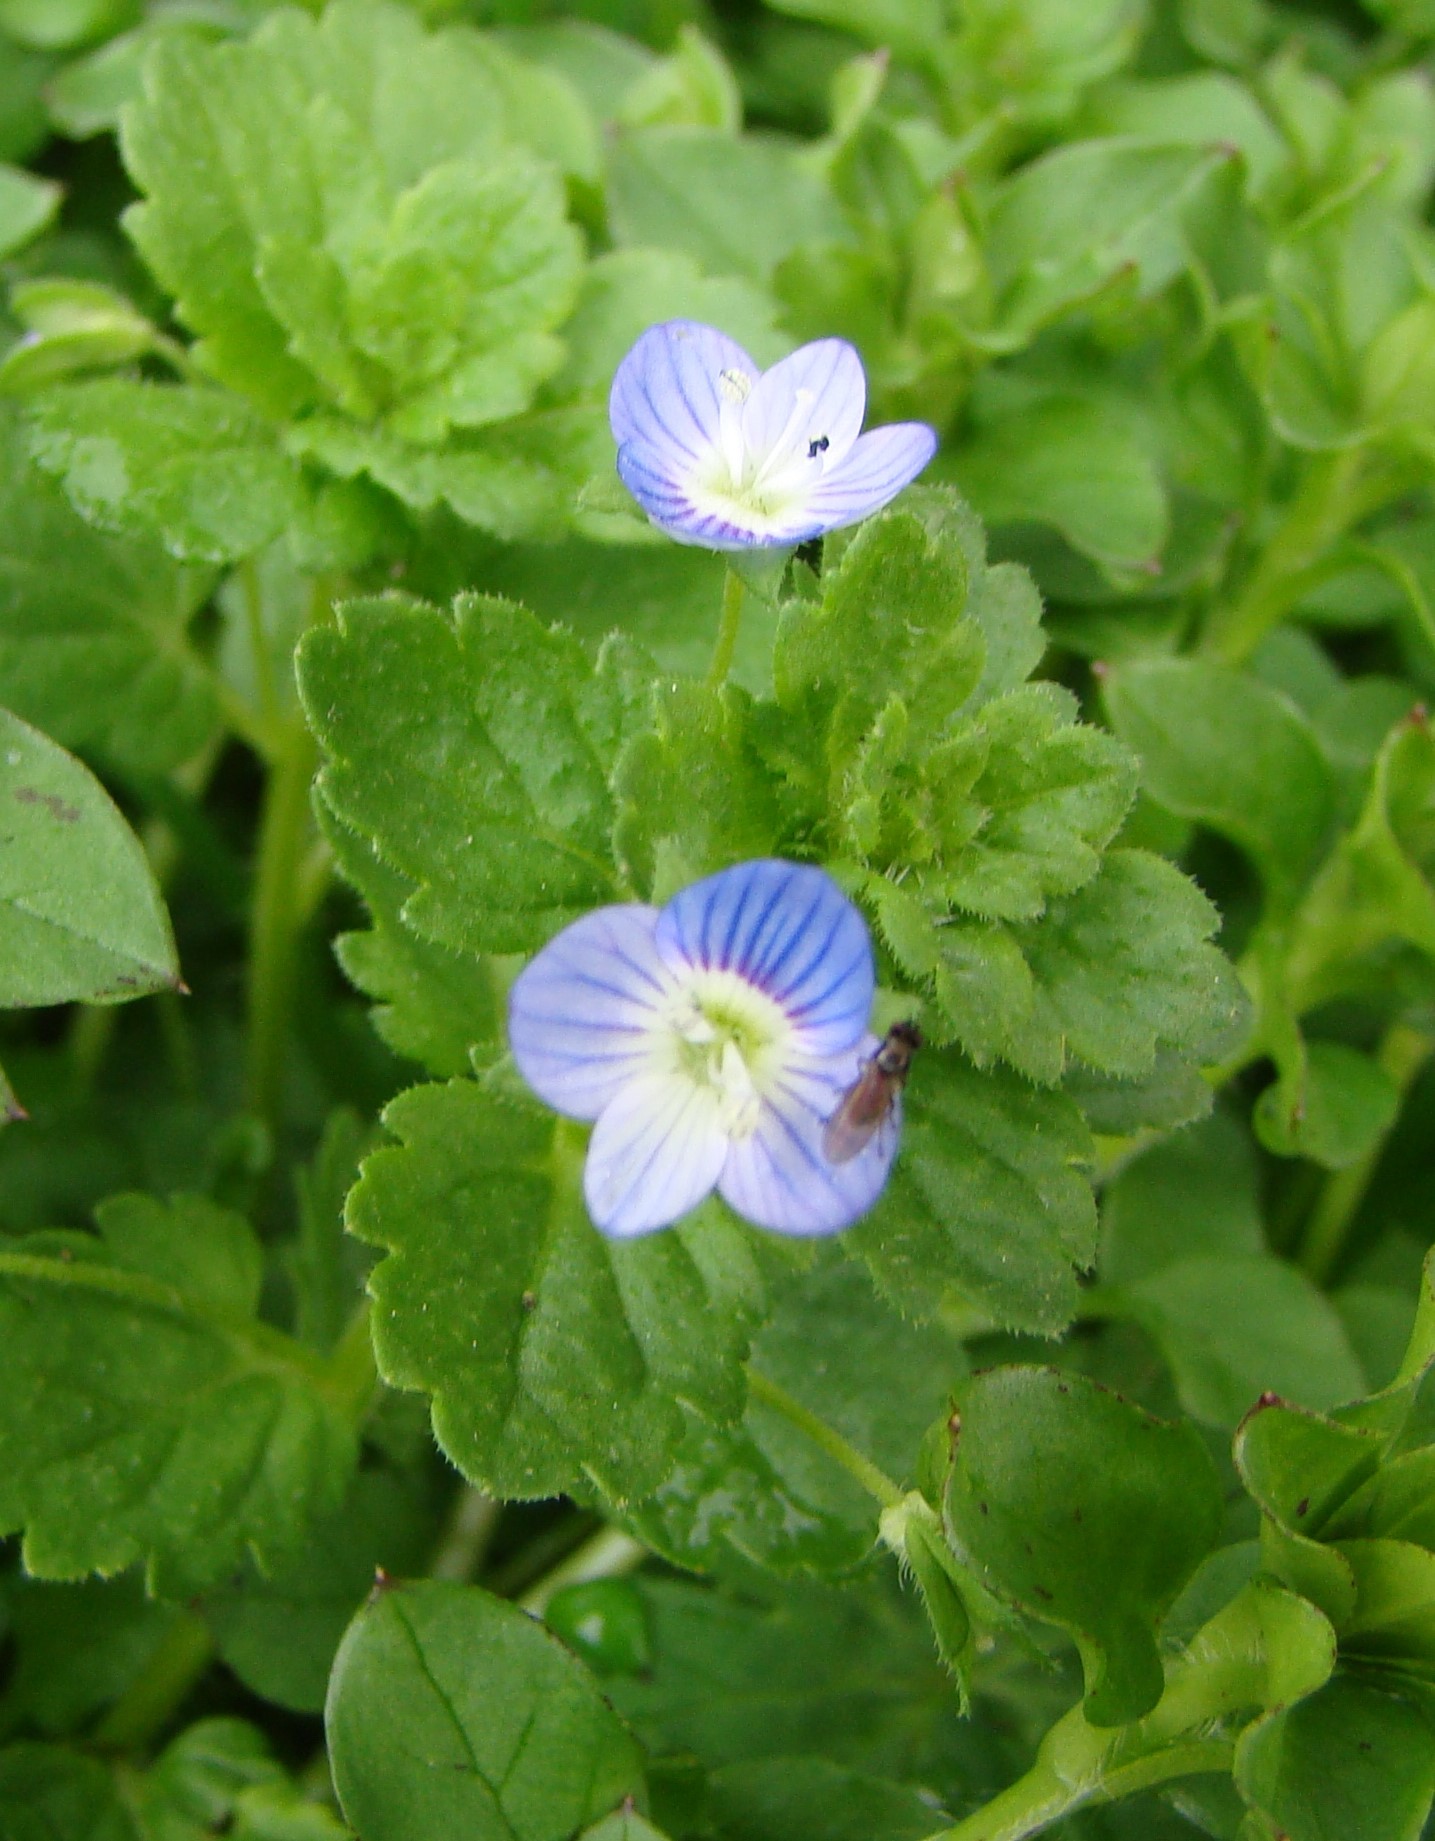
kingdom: Plantae
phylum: Tracheophyta
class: Magnoliopsida
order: Lamiales
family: Plantaginaceae
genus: Veronica
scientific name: Veronica persica
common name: Common field-speedwell
